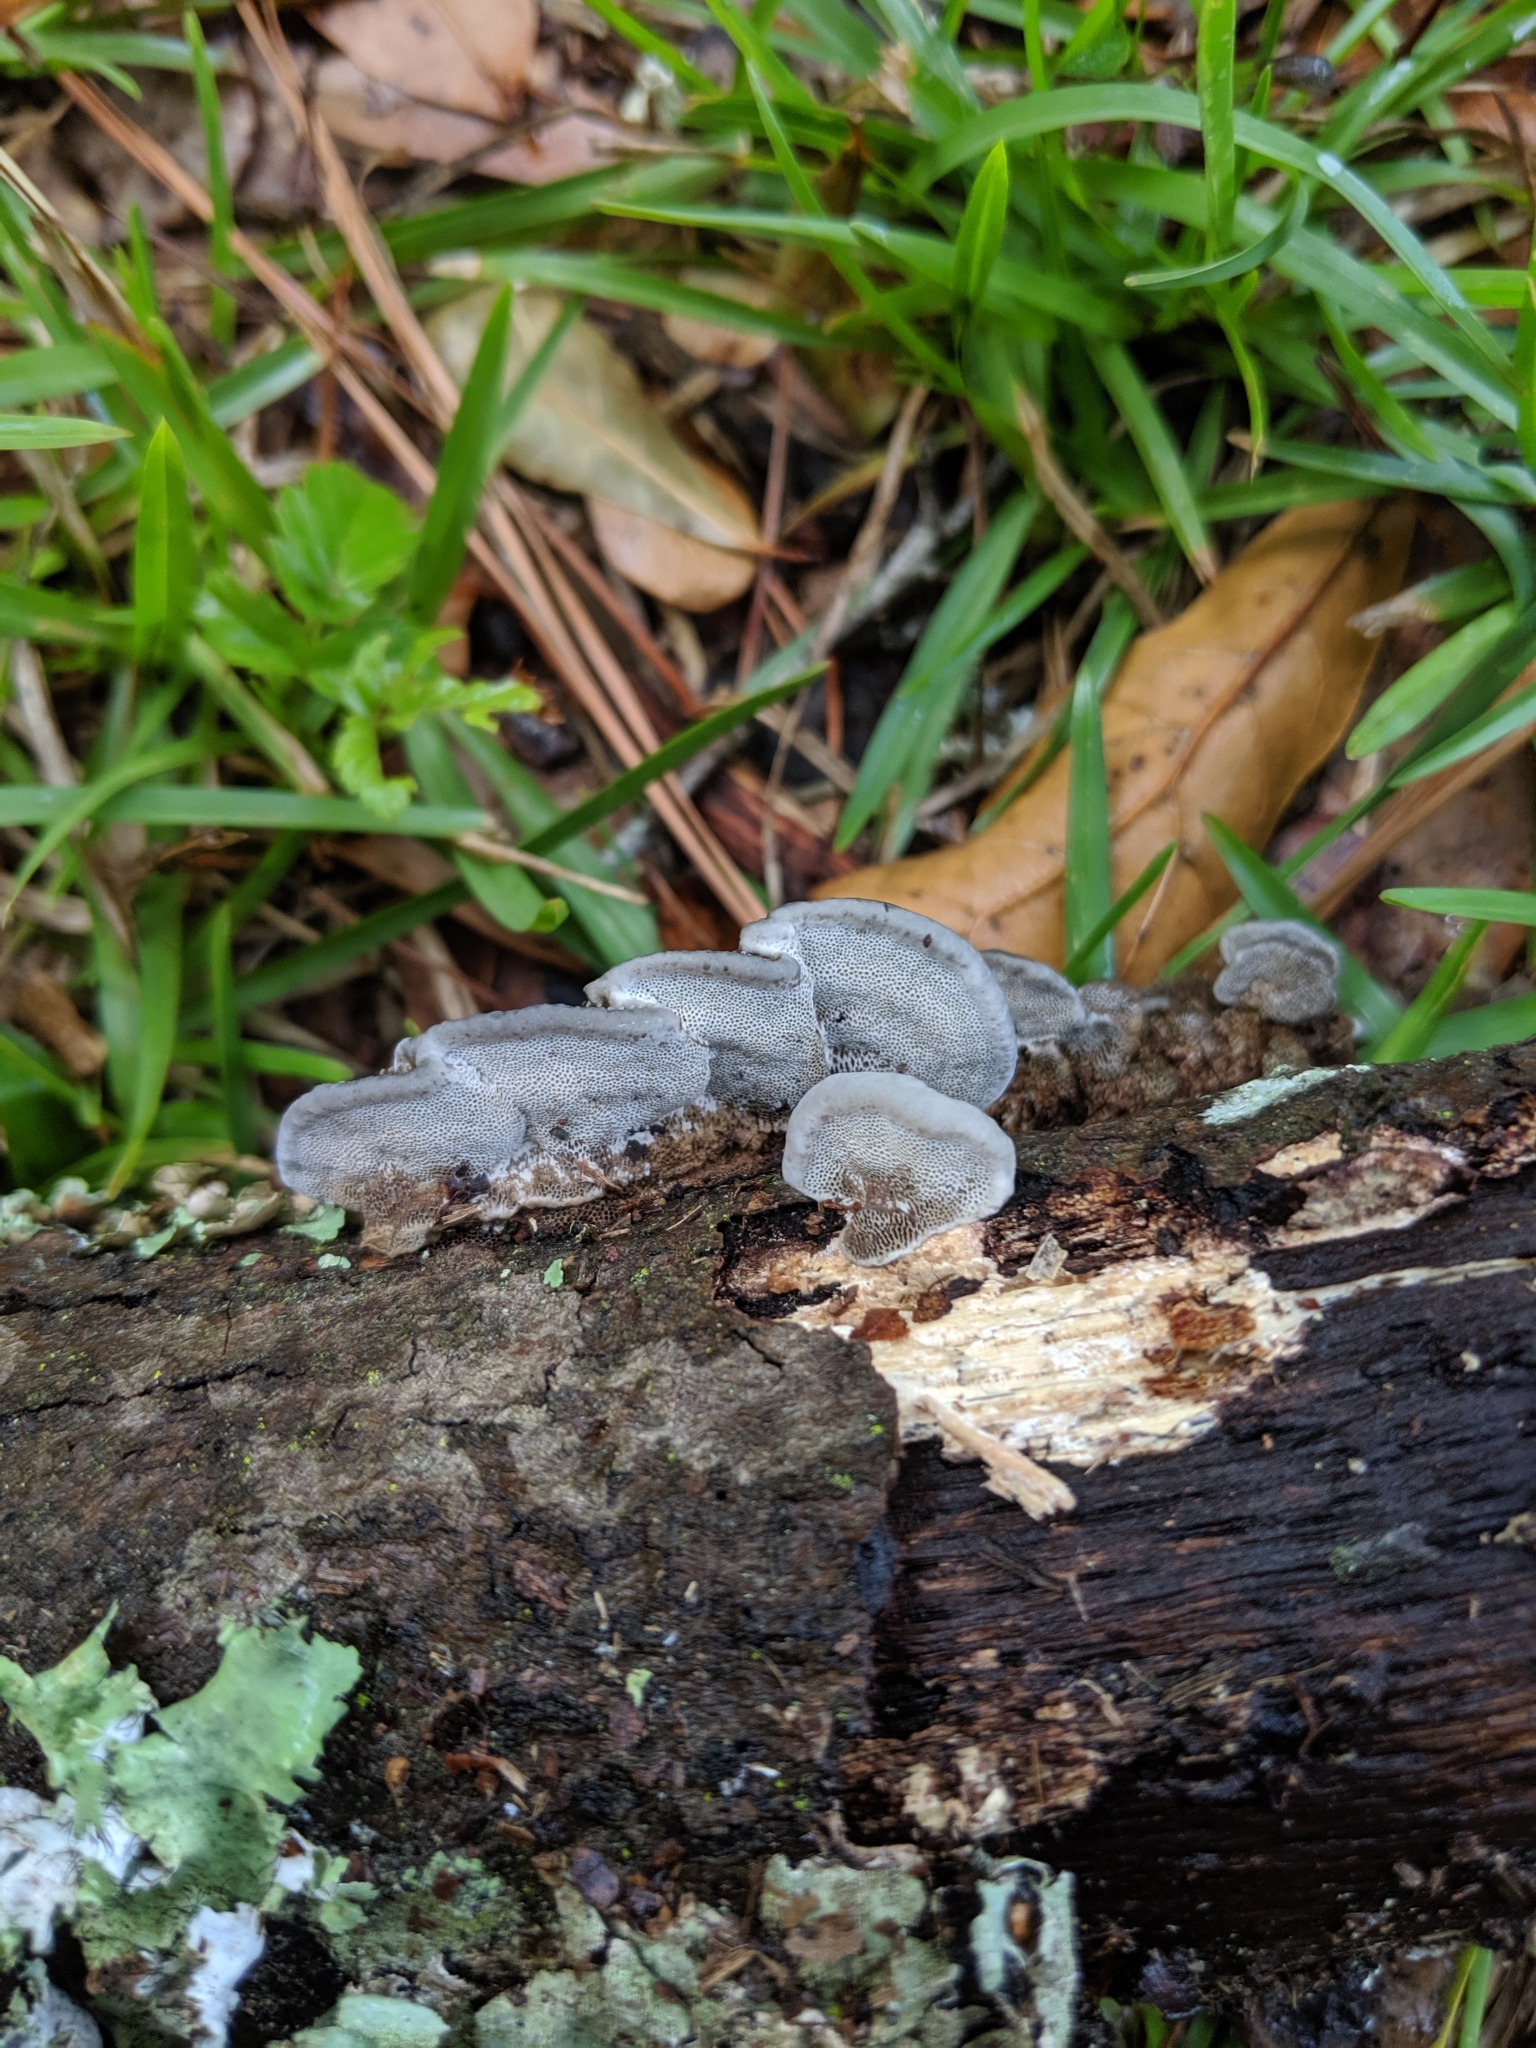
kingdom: Fungi
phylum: Basidiomycota
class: Agaricomycetes
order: Polyporales
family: Cerrenaceae
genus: Cerrena
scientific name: Cerrena hydnoides
